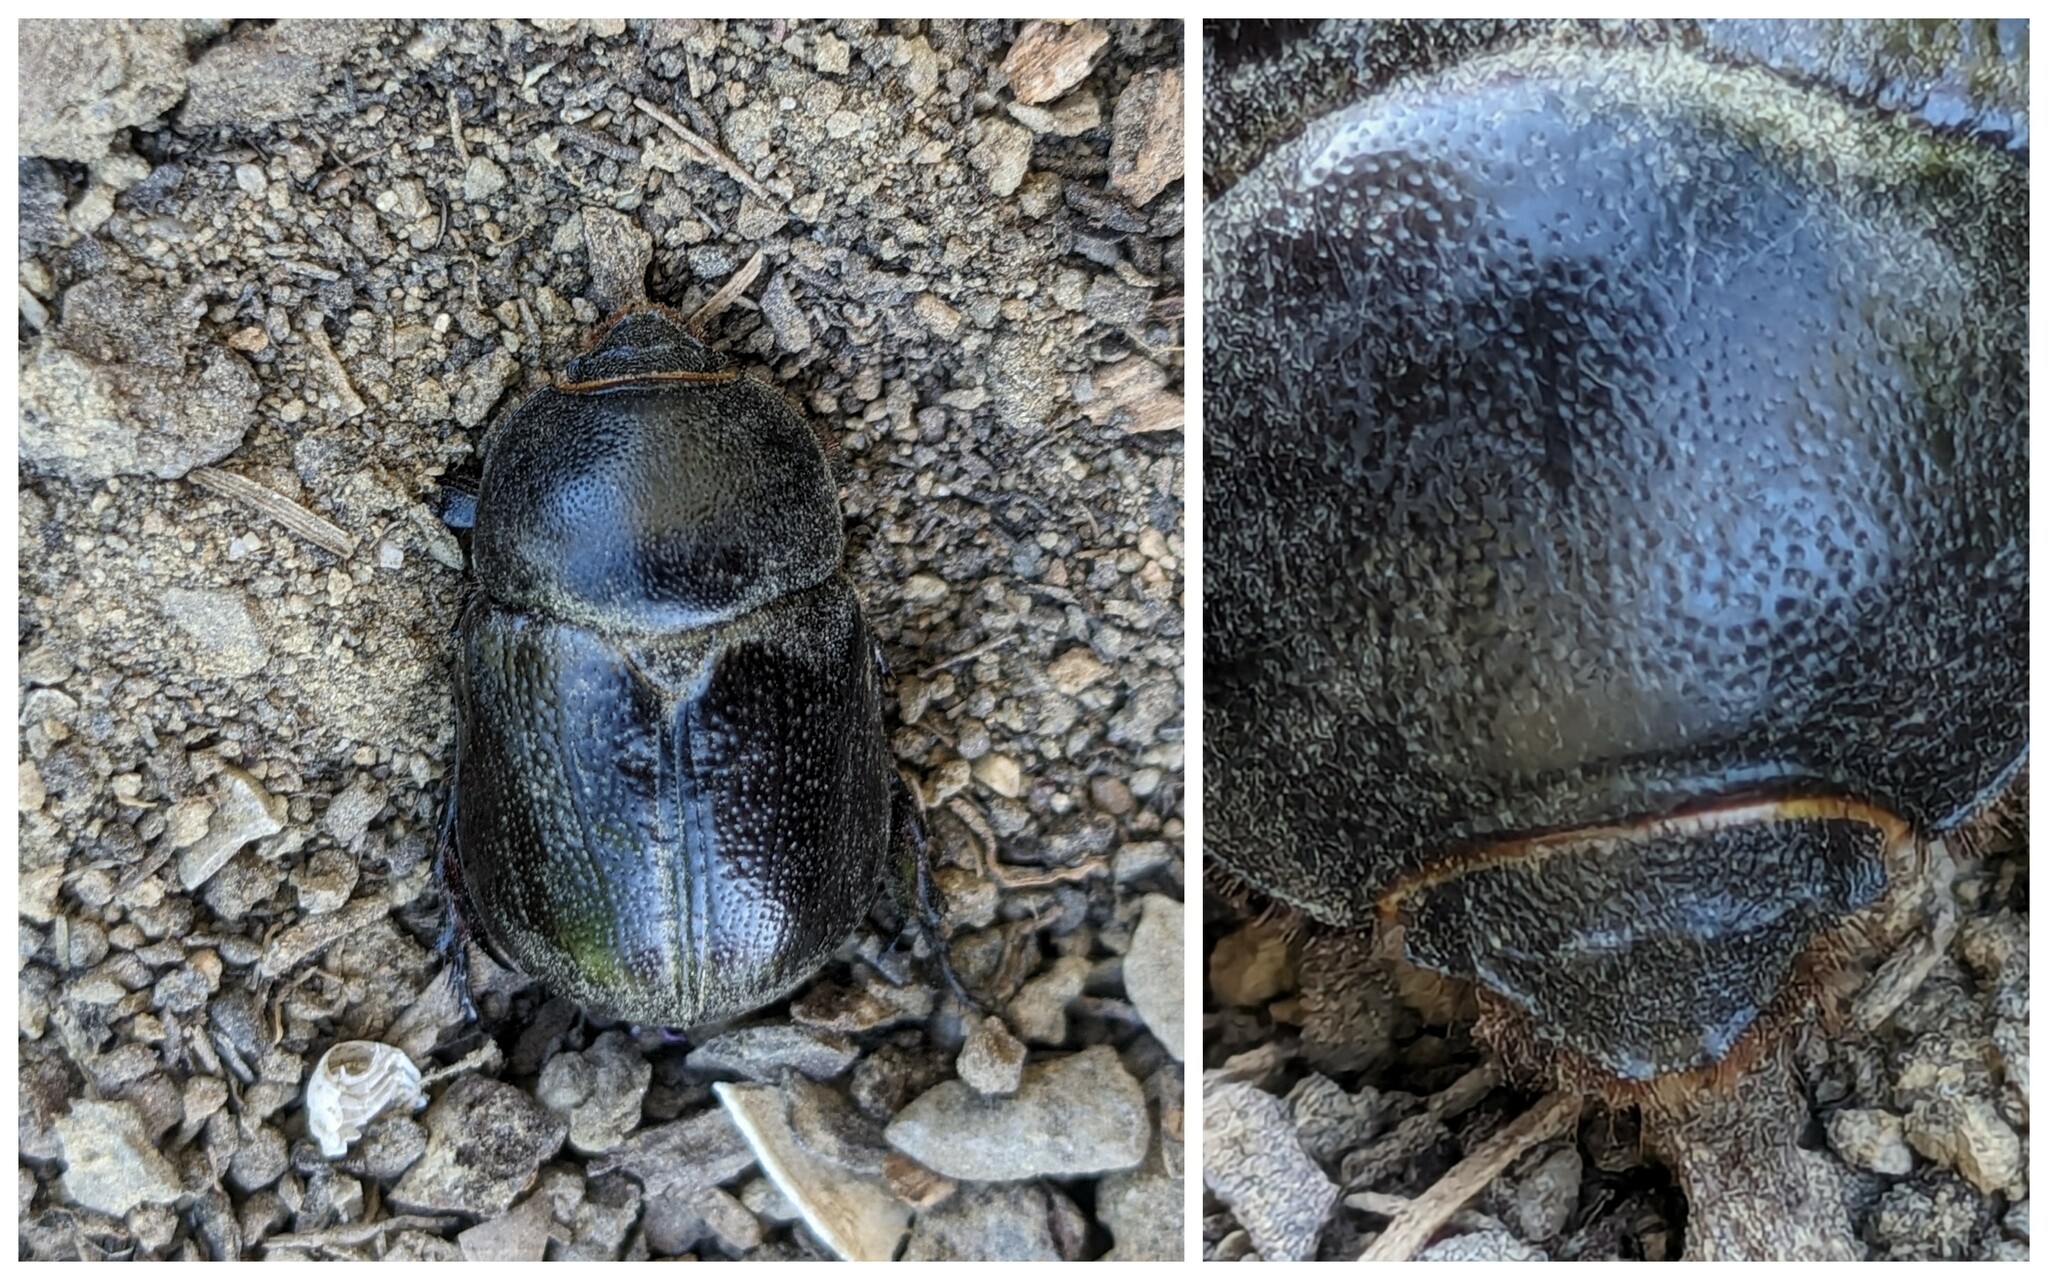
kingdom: Animalia
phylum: Arthropoda
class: Insecta
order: Coleoptera
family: Scarabaeidae
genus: Pentodon
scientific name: Pentodon bidens
